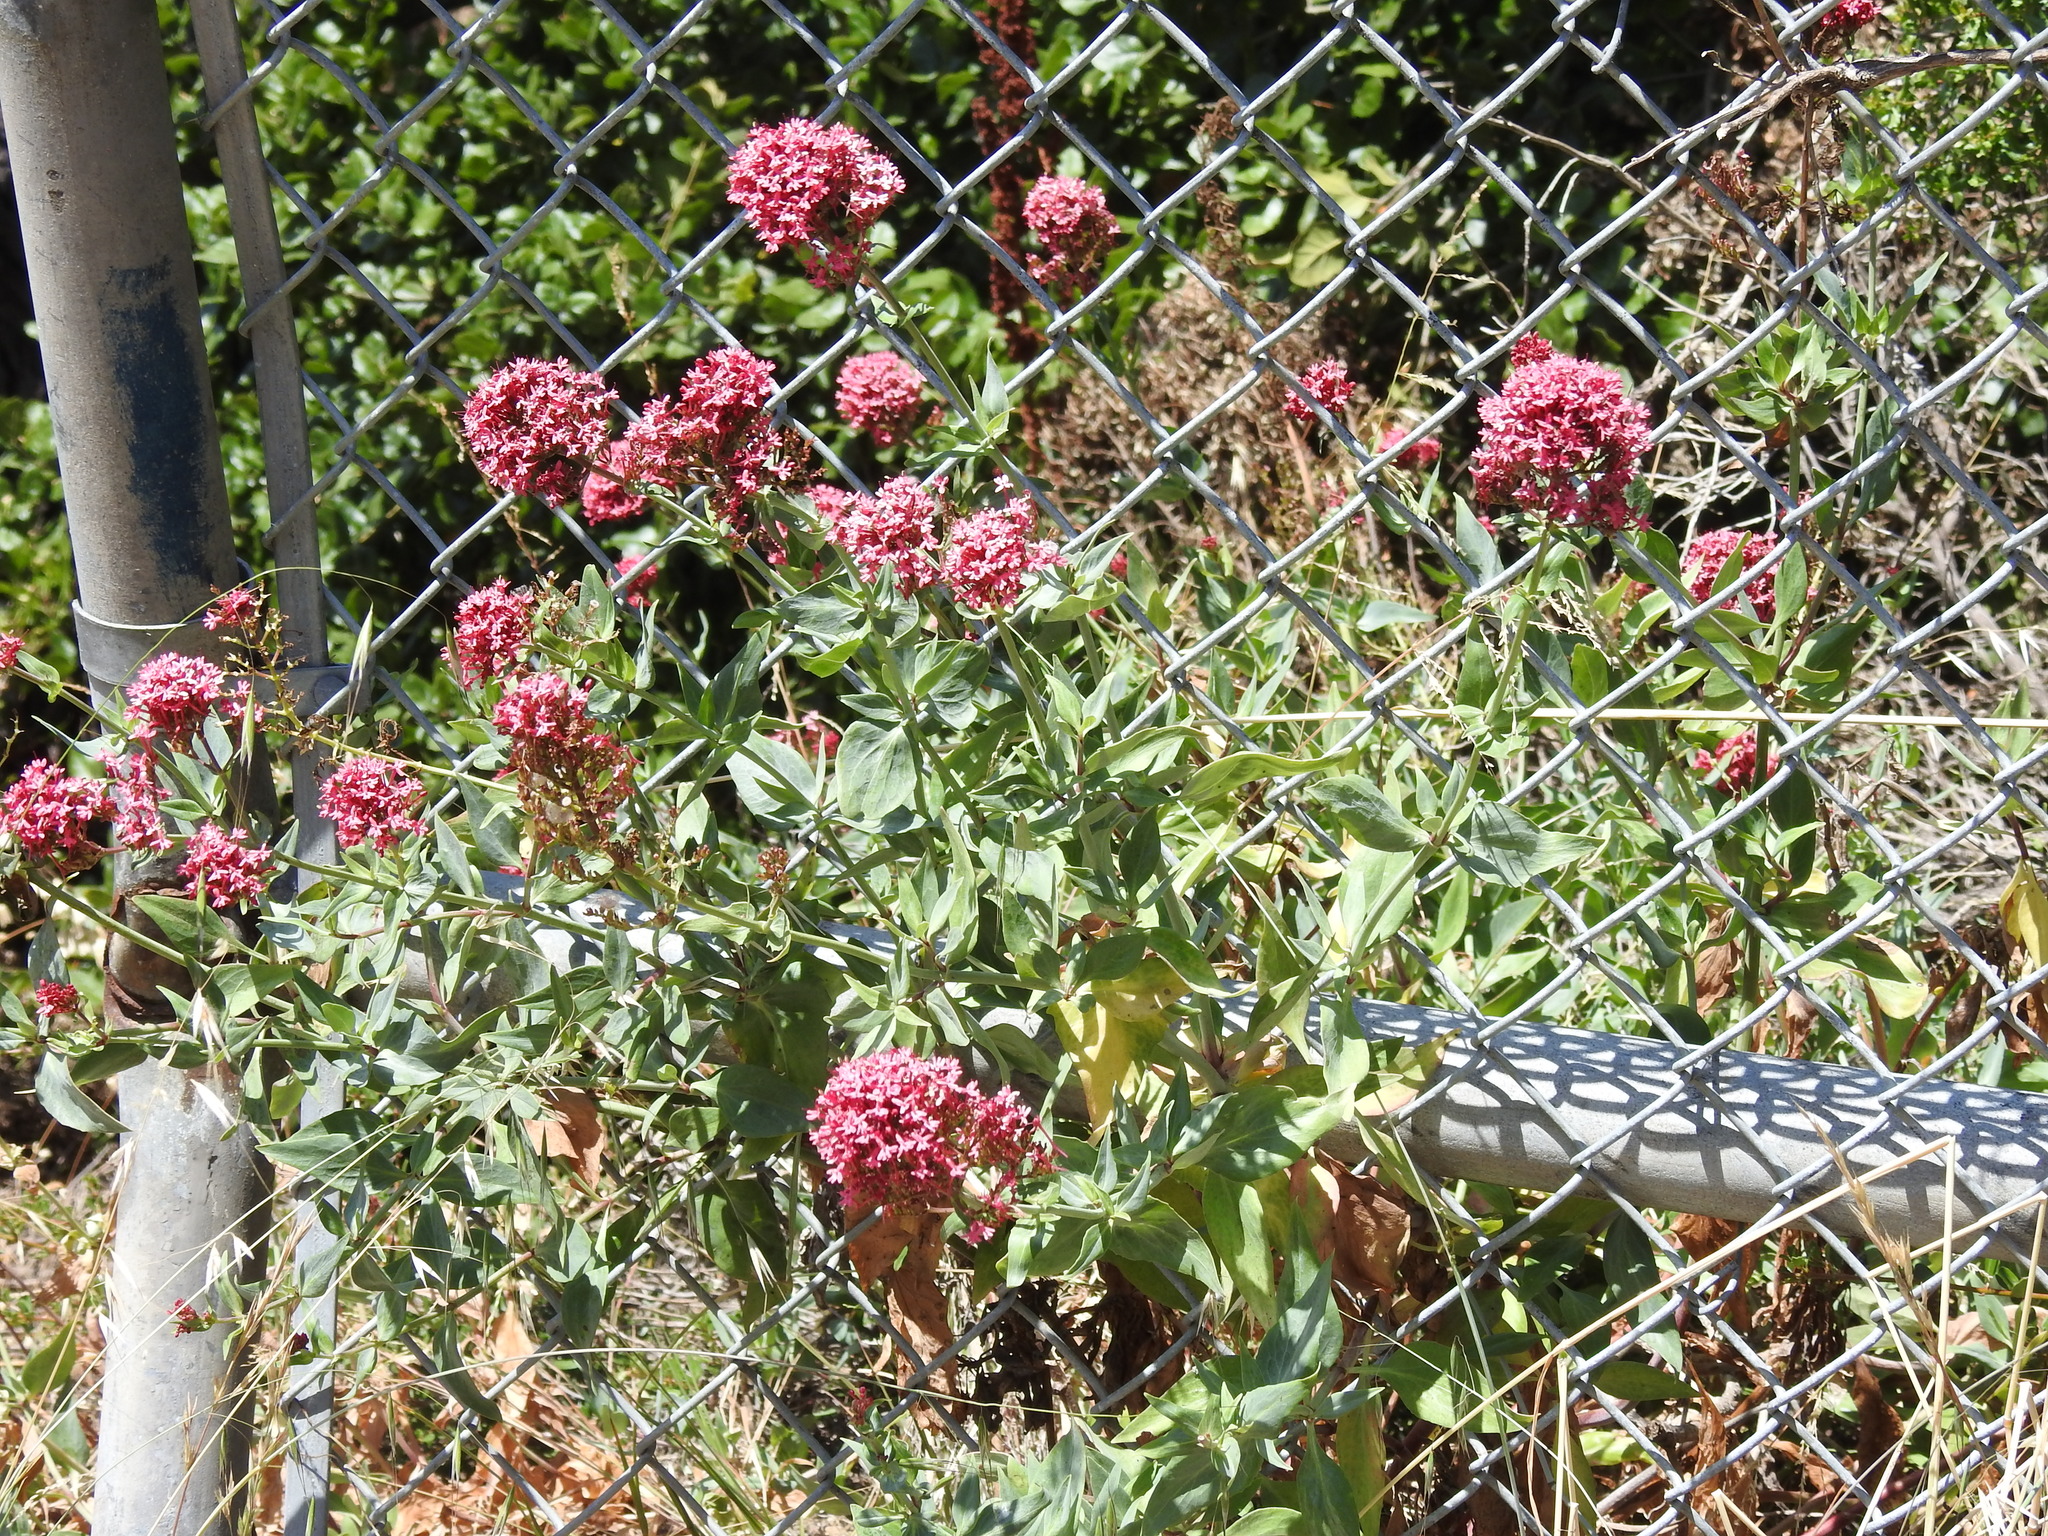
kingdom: Plantae
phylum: Tracheophyta
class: Magnoliopsida
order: Dipsacales
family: Caprifoliaceae
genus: Centranthus
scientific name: Centranthus ruber
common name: Red valerian
